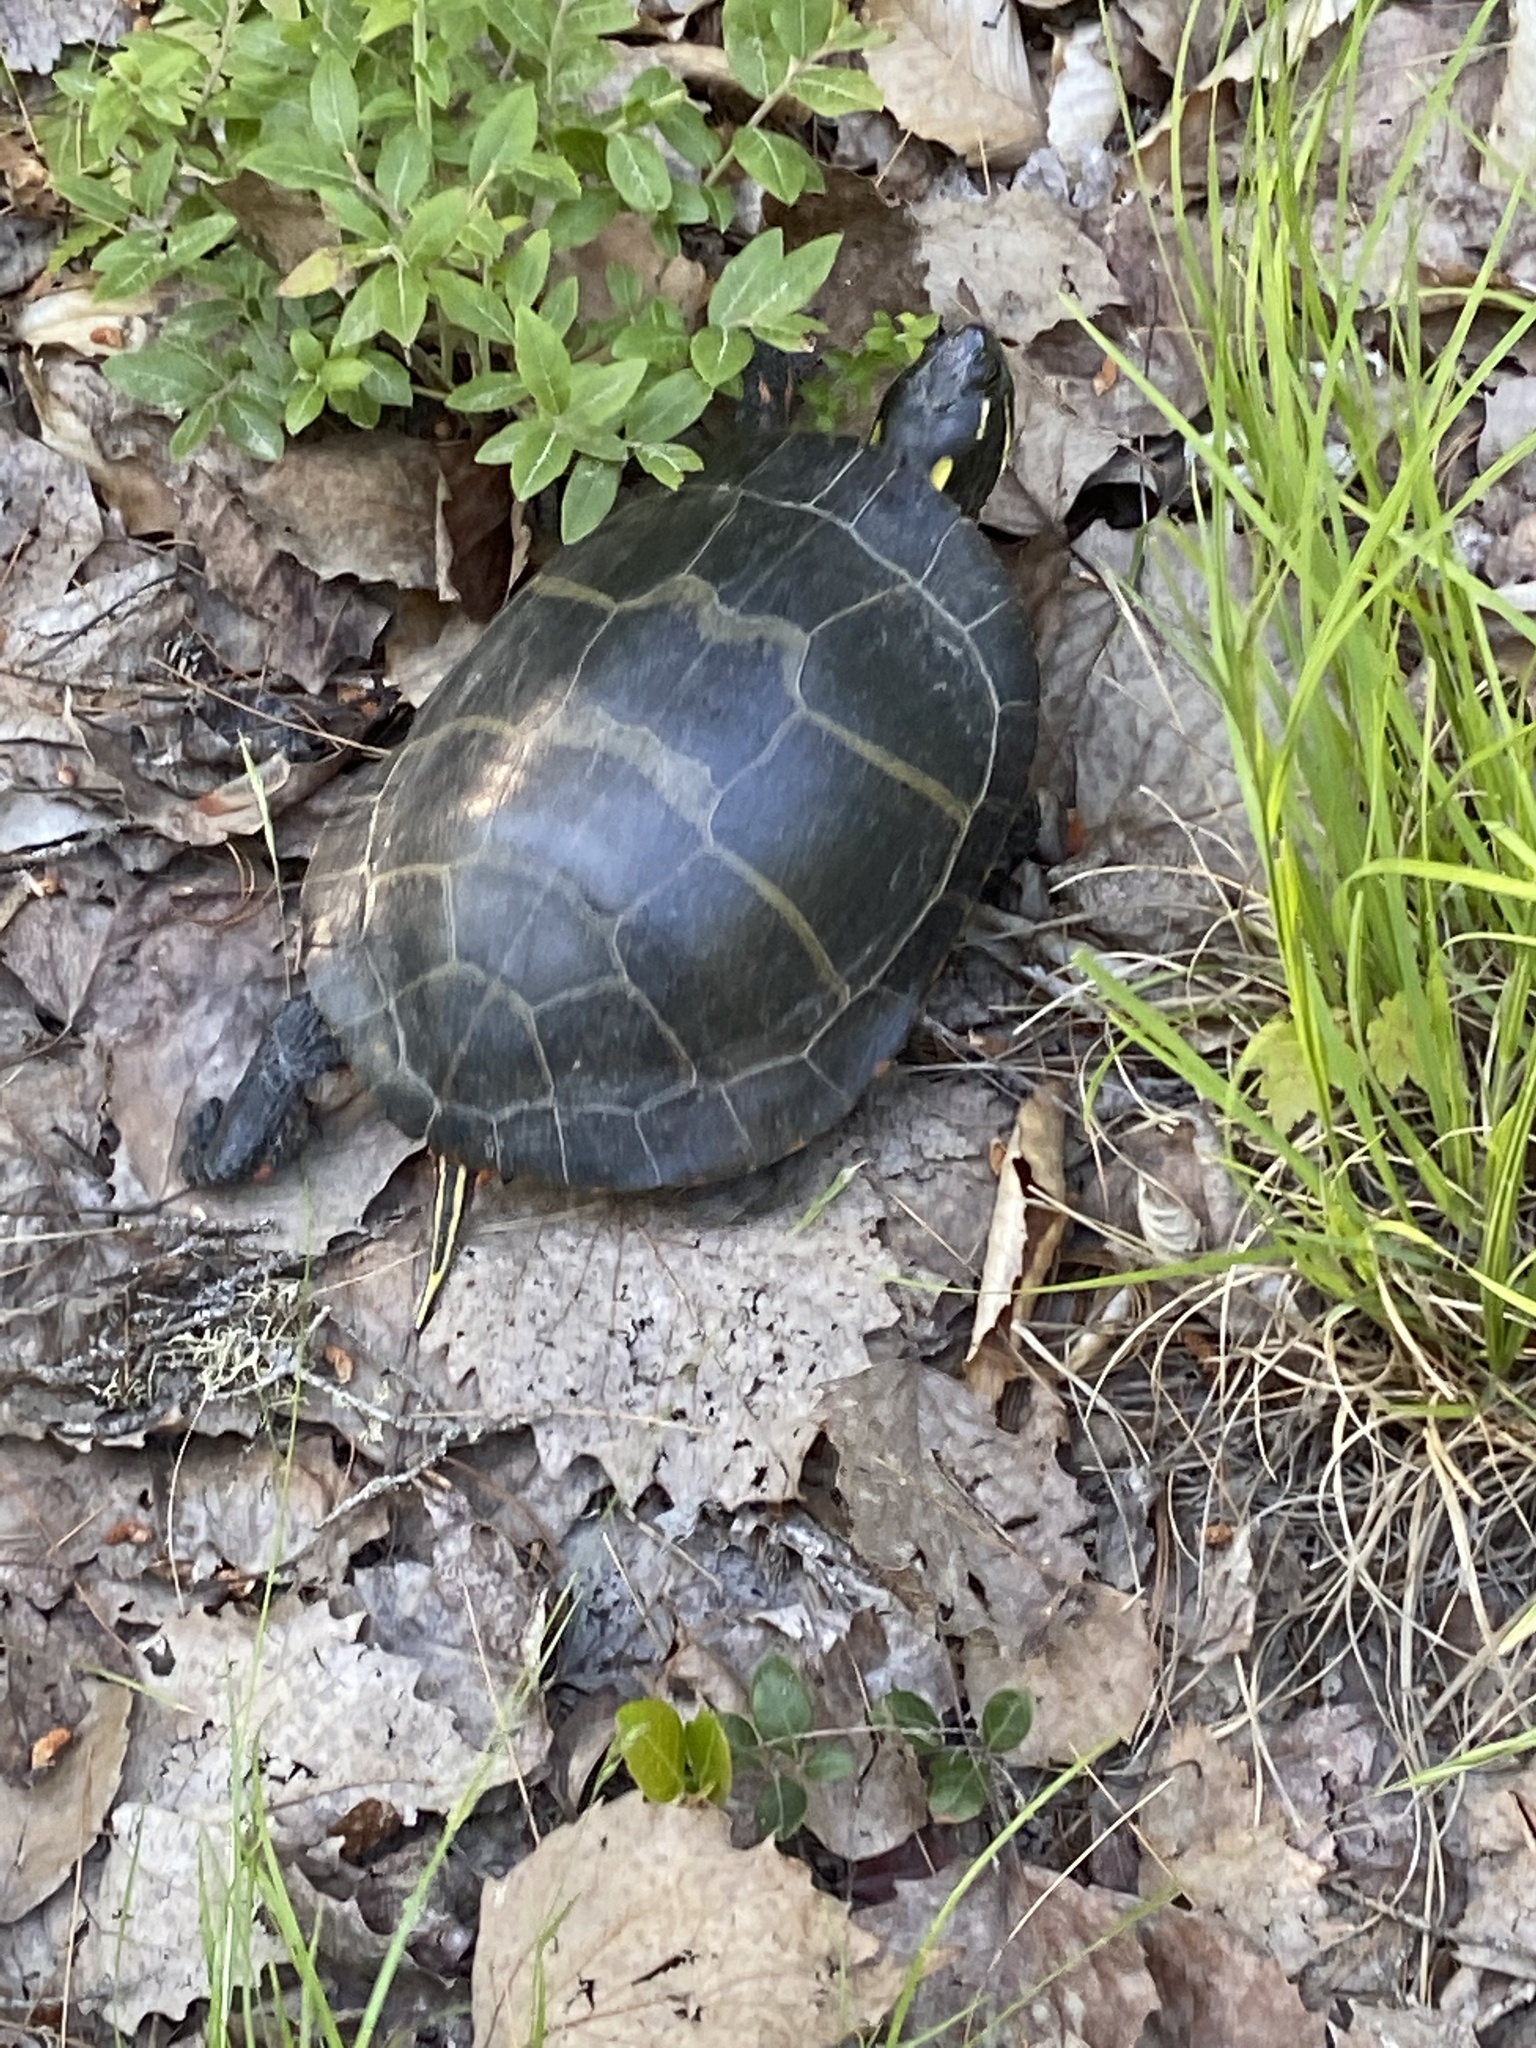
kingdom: Animalia
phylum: Chordata
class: Testudines
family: Emydidae
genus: Chrysemys
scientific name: Chrysemys picta
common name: Painted turtle
